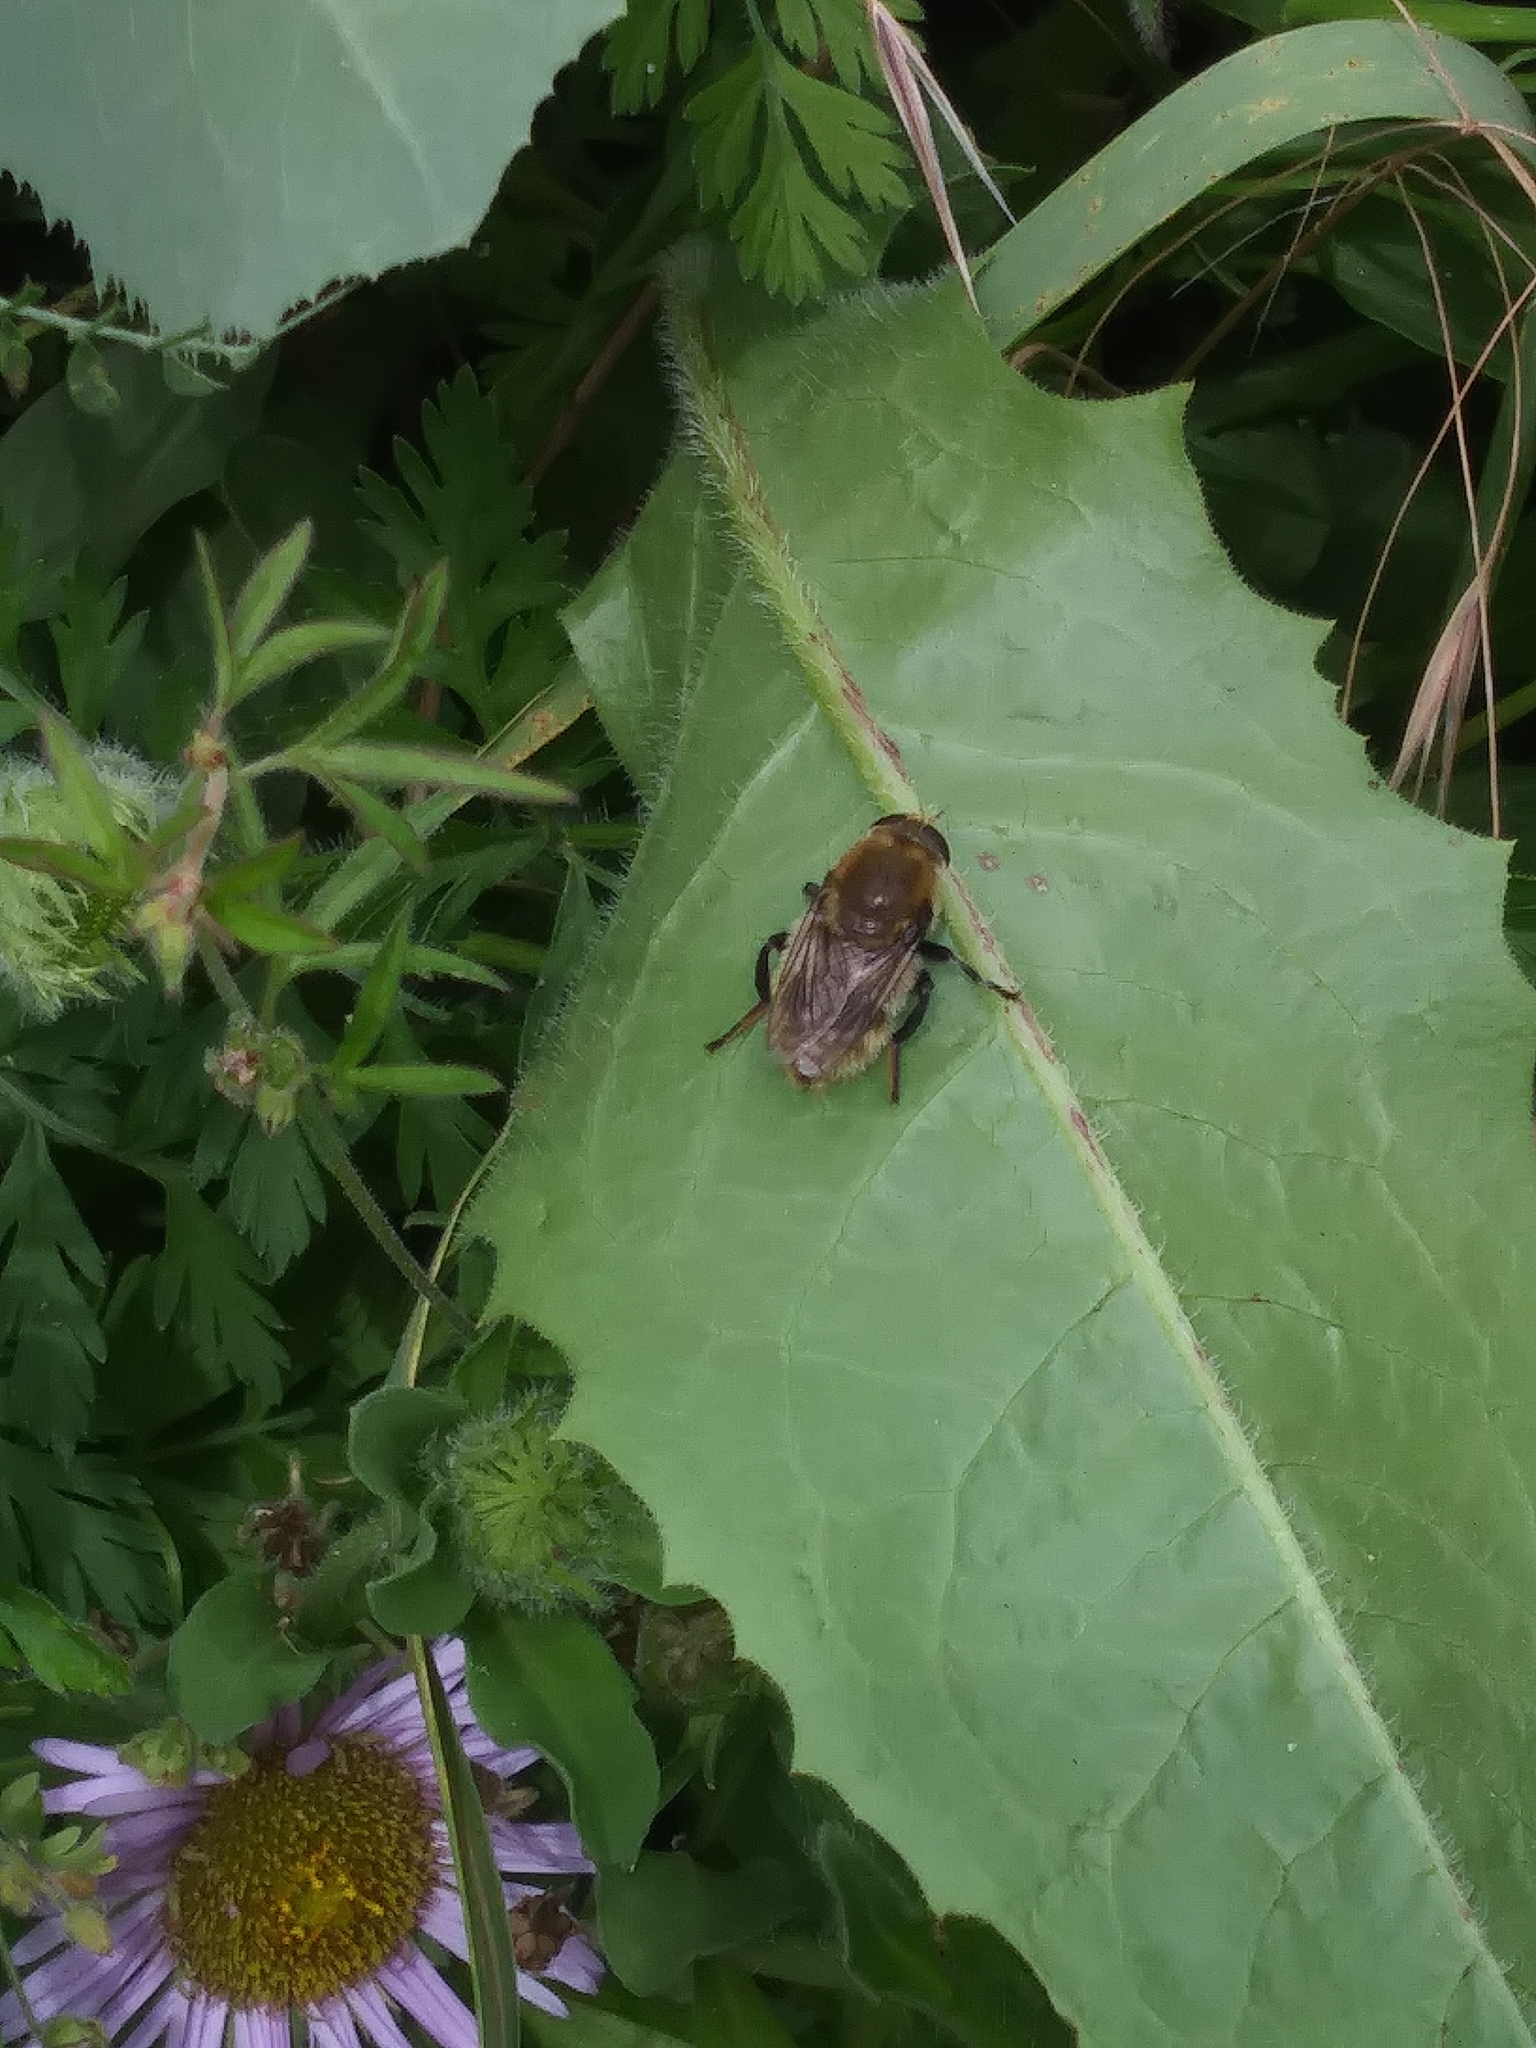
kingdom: Animalia
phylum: Arthropoda
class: Insecta
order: Diptera
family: Syrphidae
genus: Merodon
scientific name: Merodon equestris
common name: Greater bulb-fly
